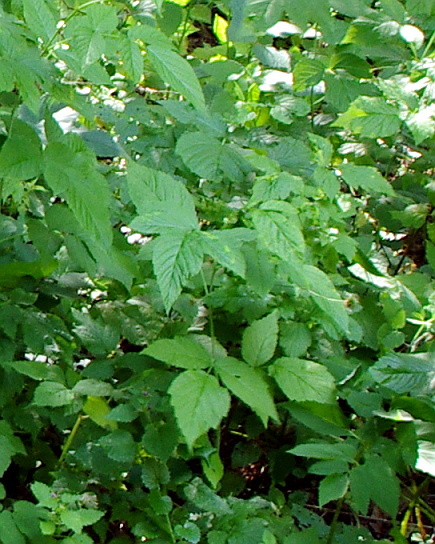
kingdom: Plantae
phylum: Tracheophyta
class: Magnoliopsida
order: Rosales
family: Rosaceae
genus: Rubus
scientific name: Rubus idaeus
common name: Raspberry
